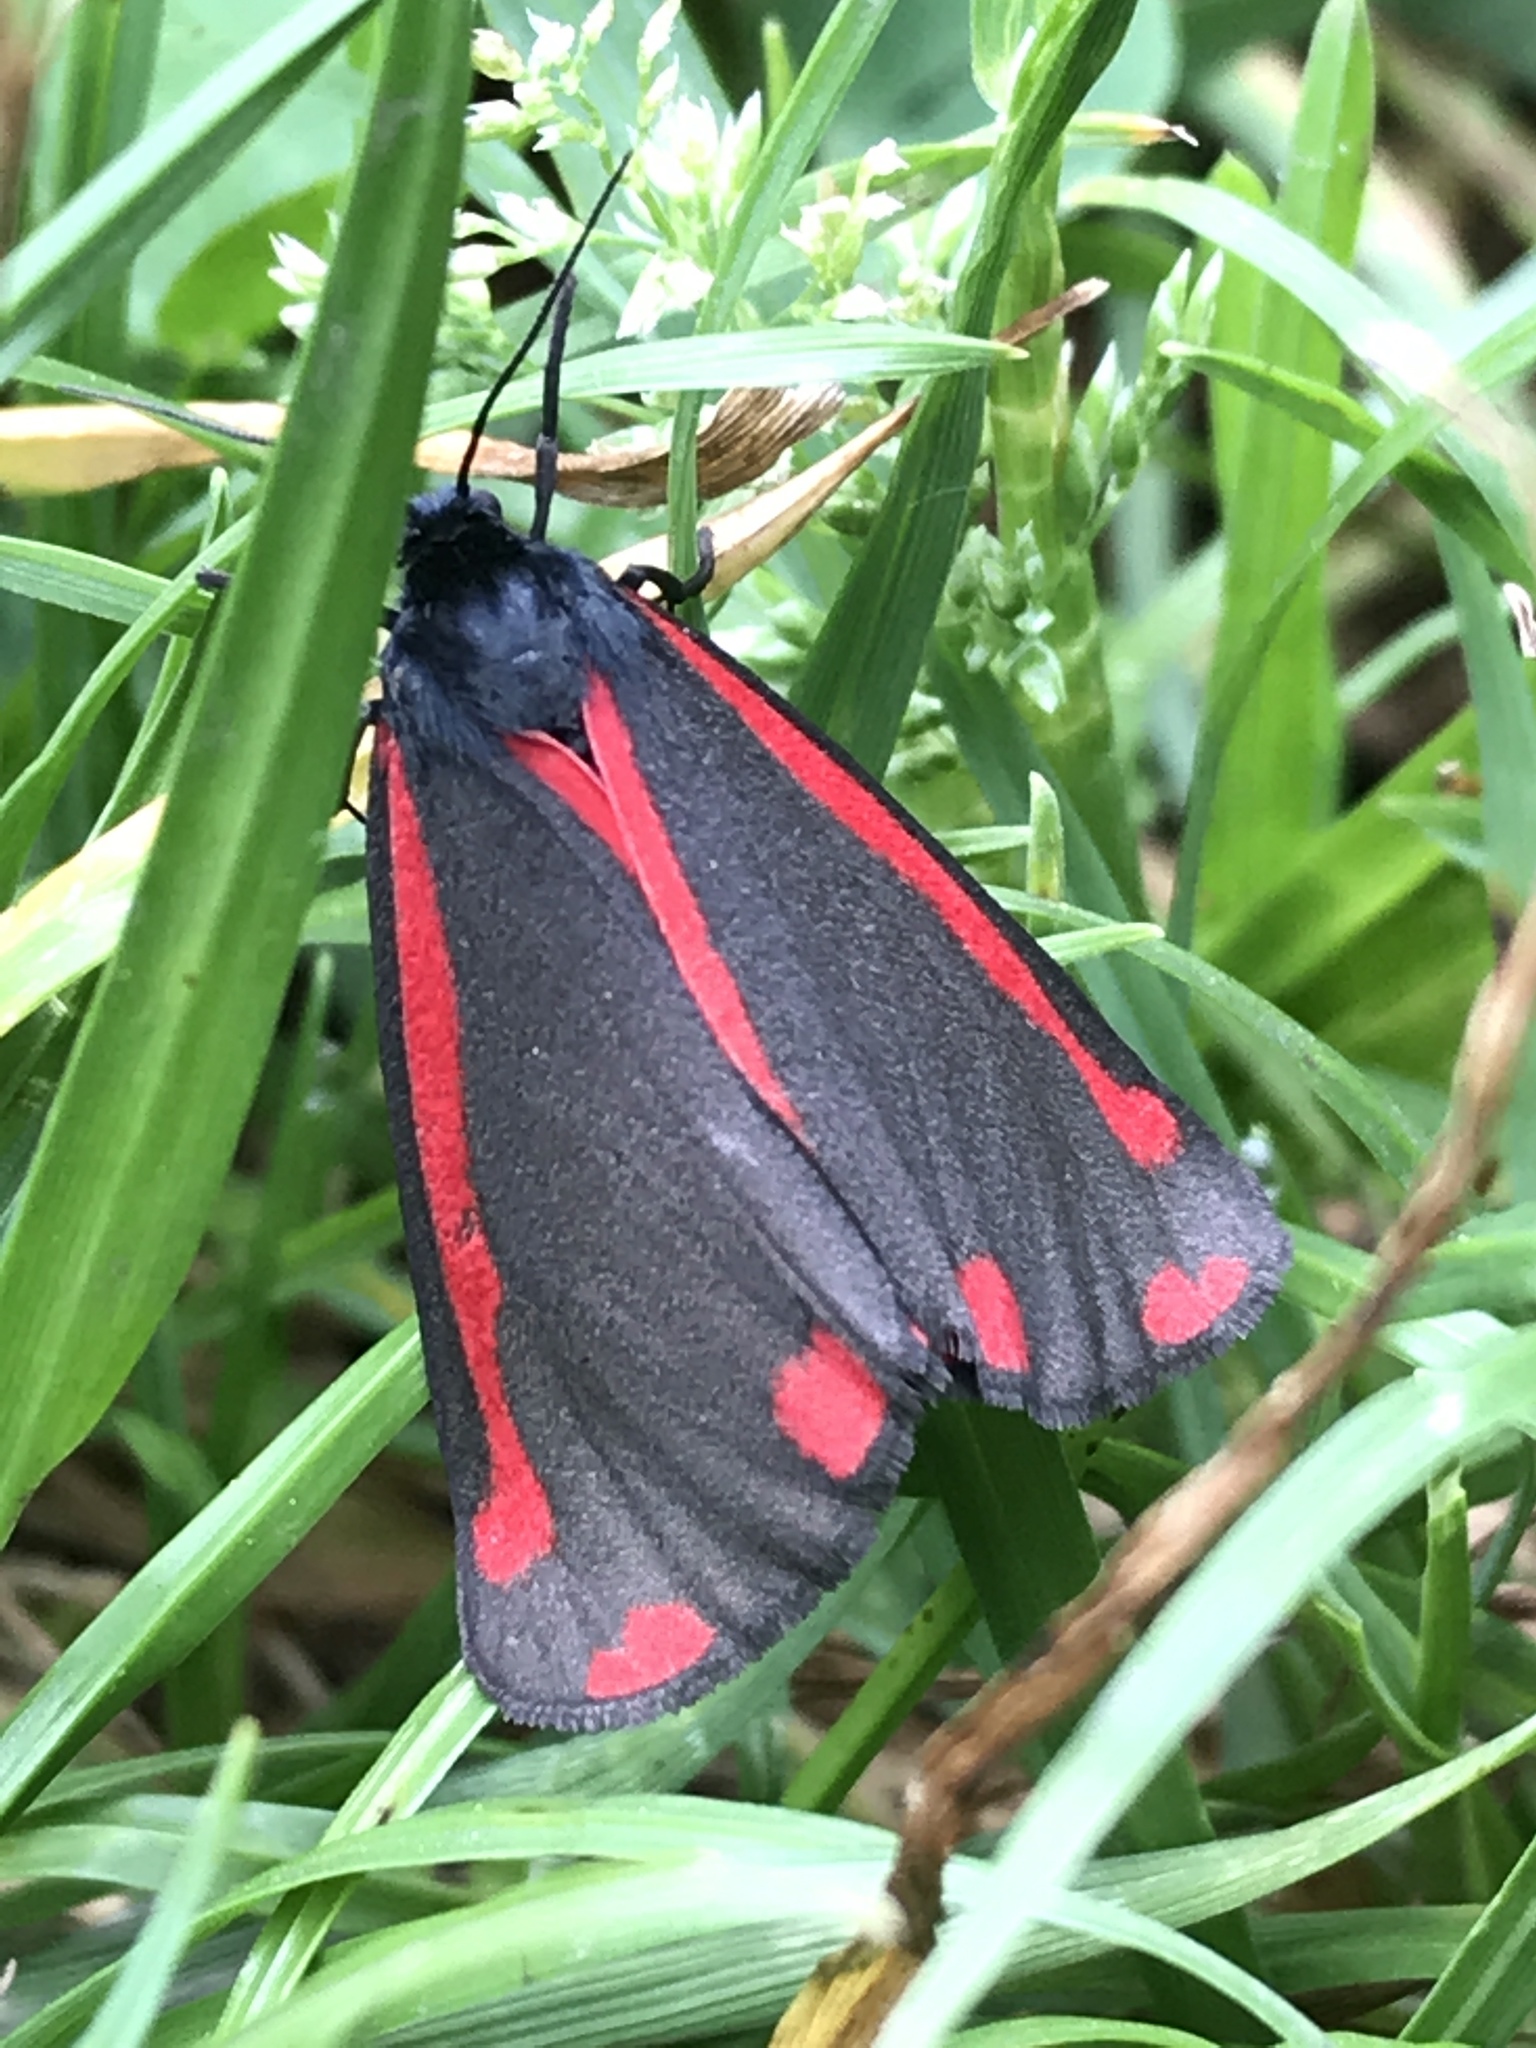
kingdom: Animalia
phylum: Arthropoda
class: Insecta
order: Lepidoptera
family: Erebidae
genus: Tyria
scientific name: Tyria jacobaeae
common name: Cinnabar
